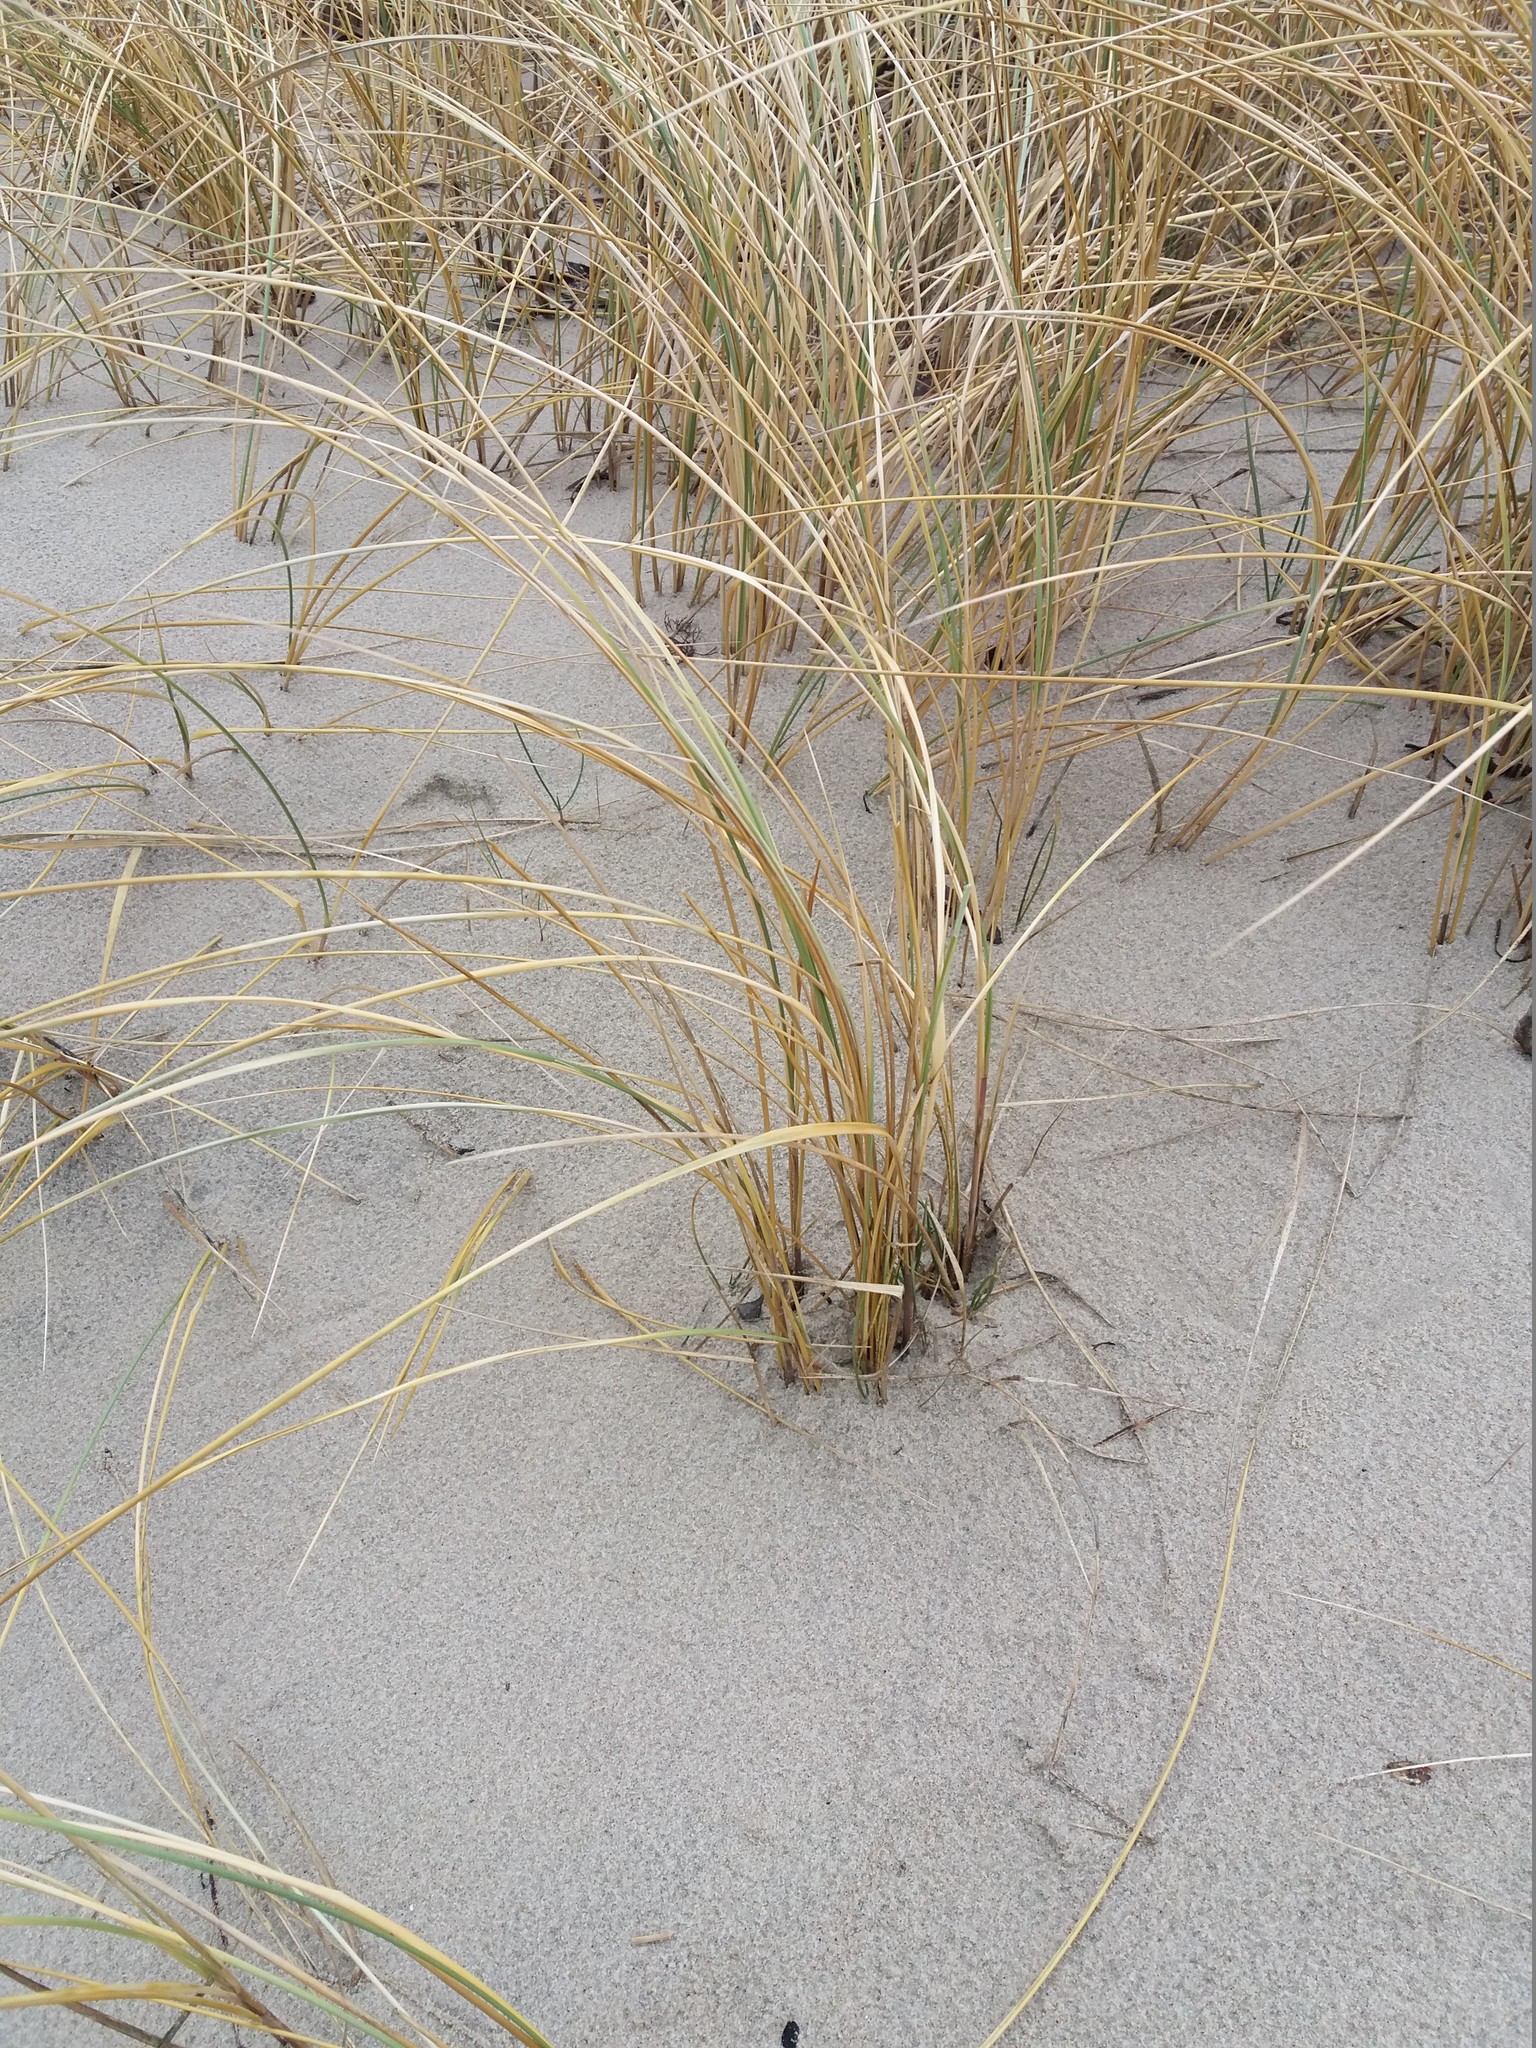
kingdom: Plantae
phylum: Tracheophyta
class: Liliopsida
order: Poales
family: Poaceae
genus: Calamagrostis
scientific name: Calamagrostis arenaria
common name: European beachgrass
